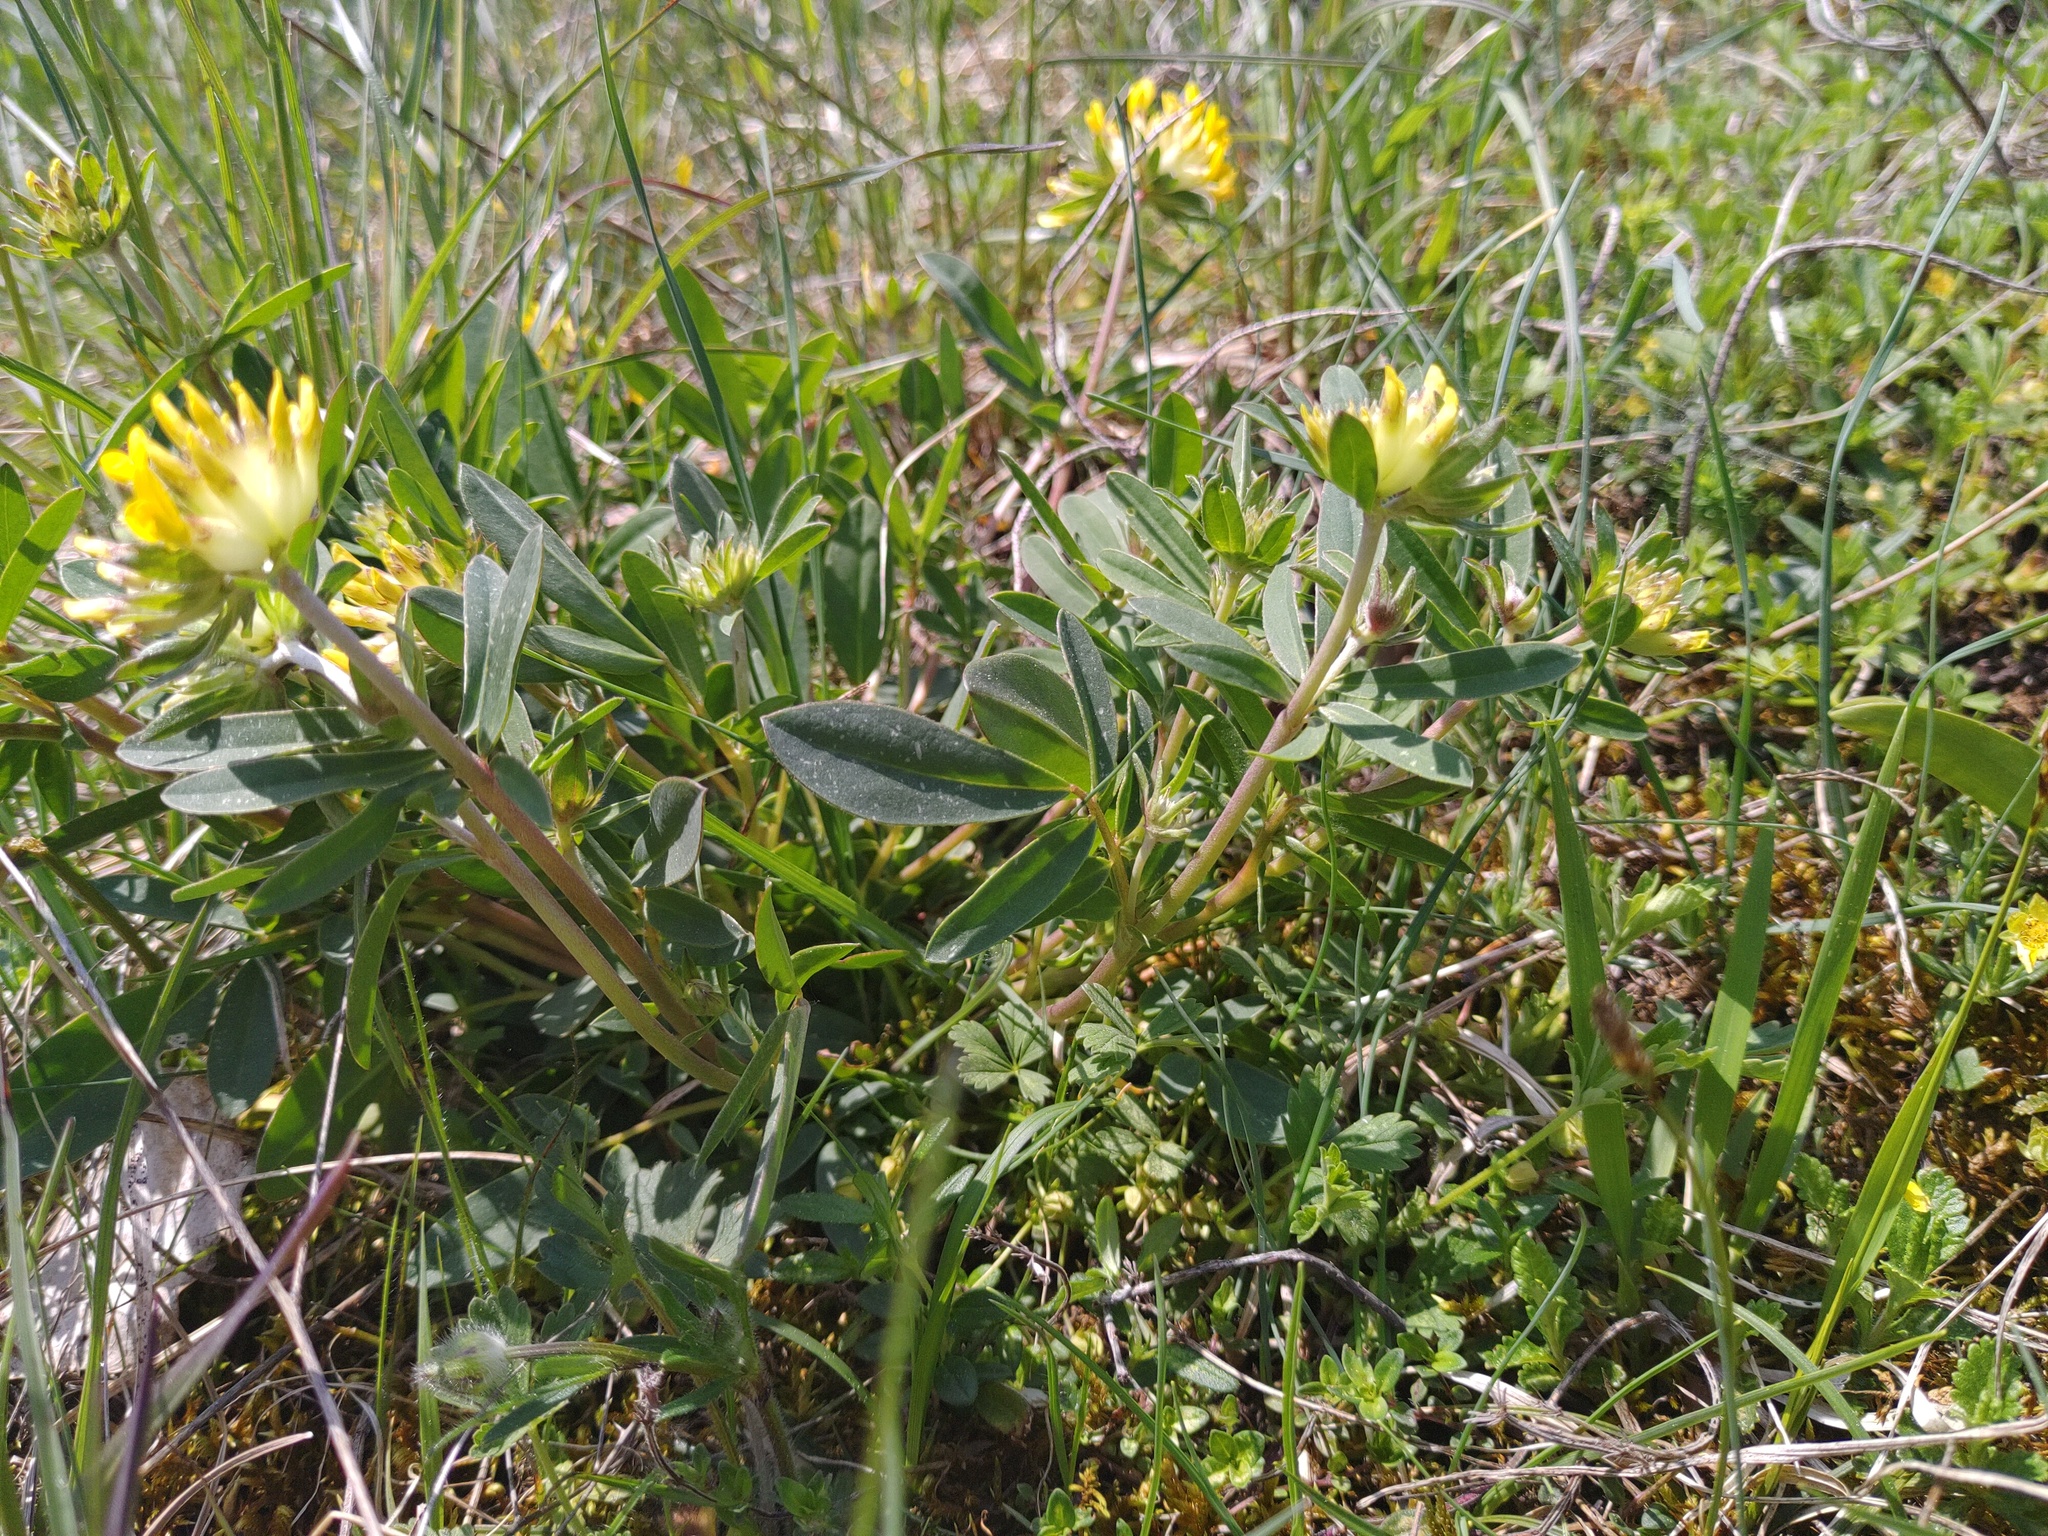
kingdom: Plantae
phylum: Tracheophyta
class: Magnoliopsida
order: Fabales
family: Fabaceae
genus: Anthyllis
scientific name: Anthyllis vulneraria
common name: Kidney vetch
